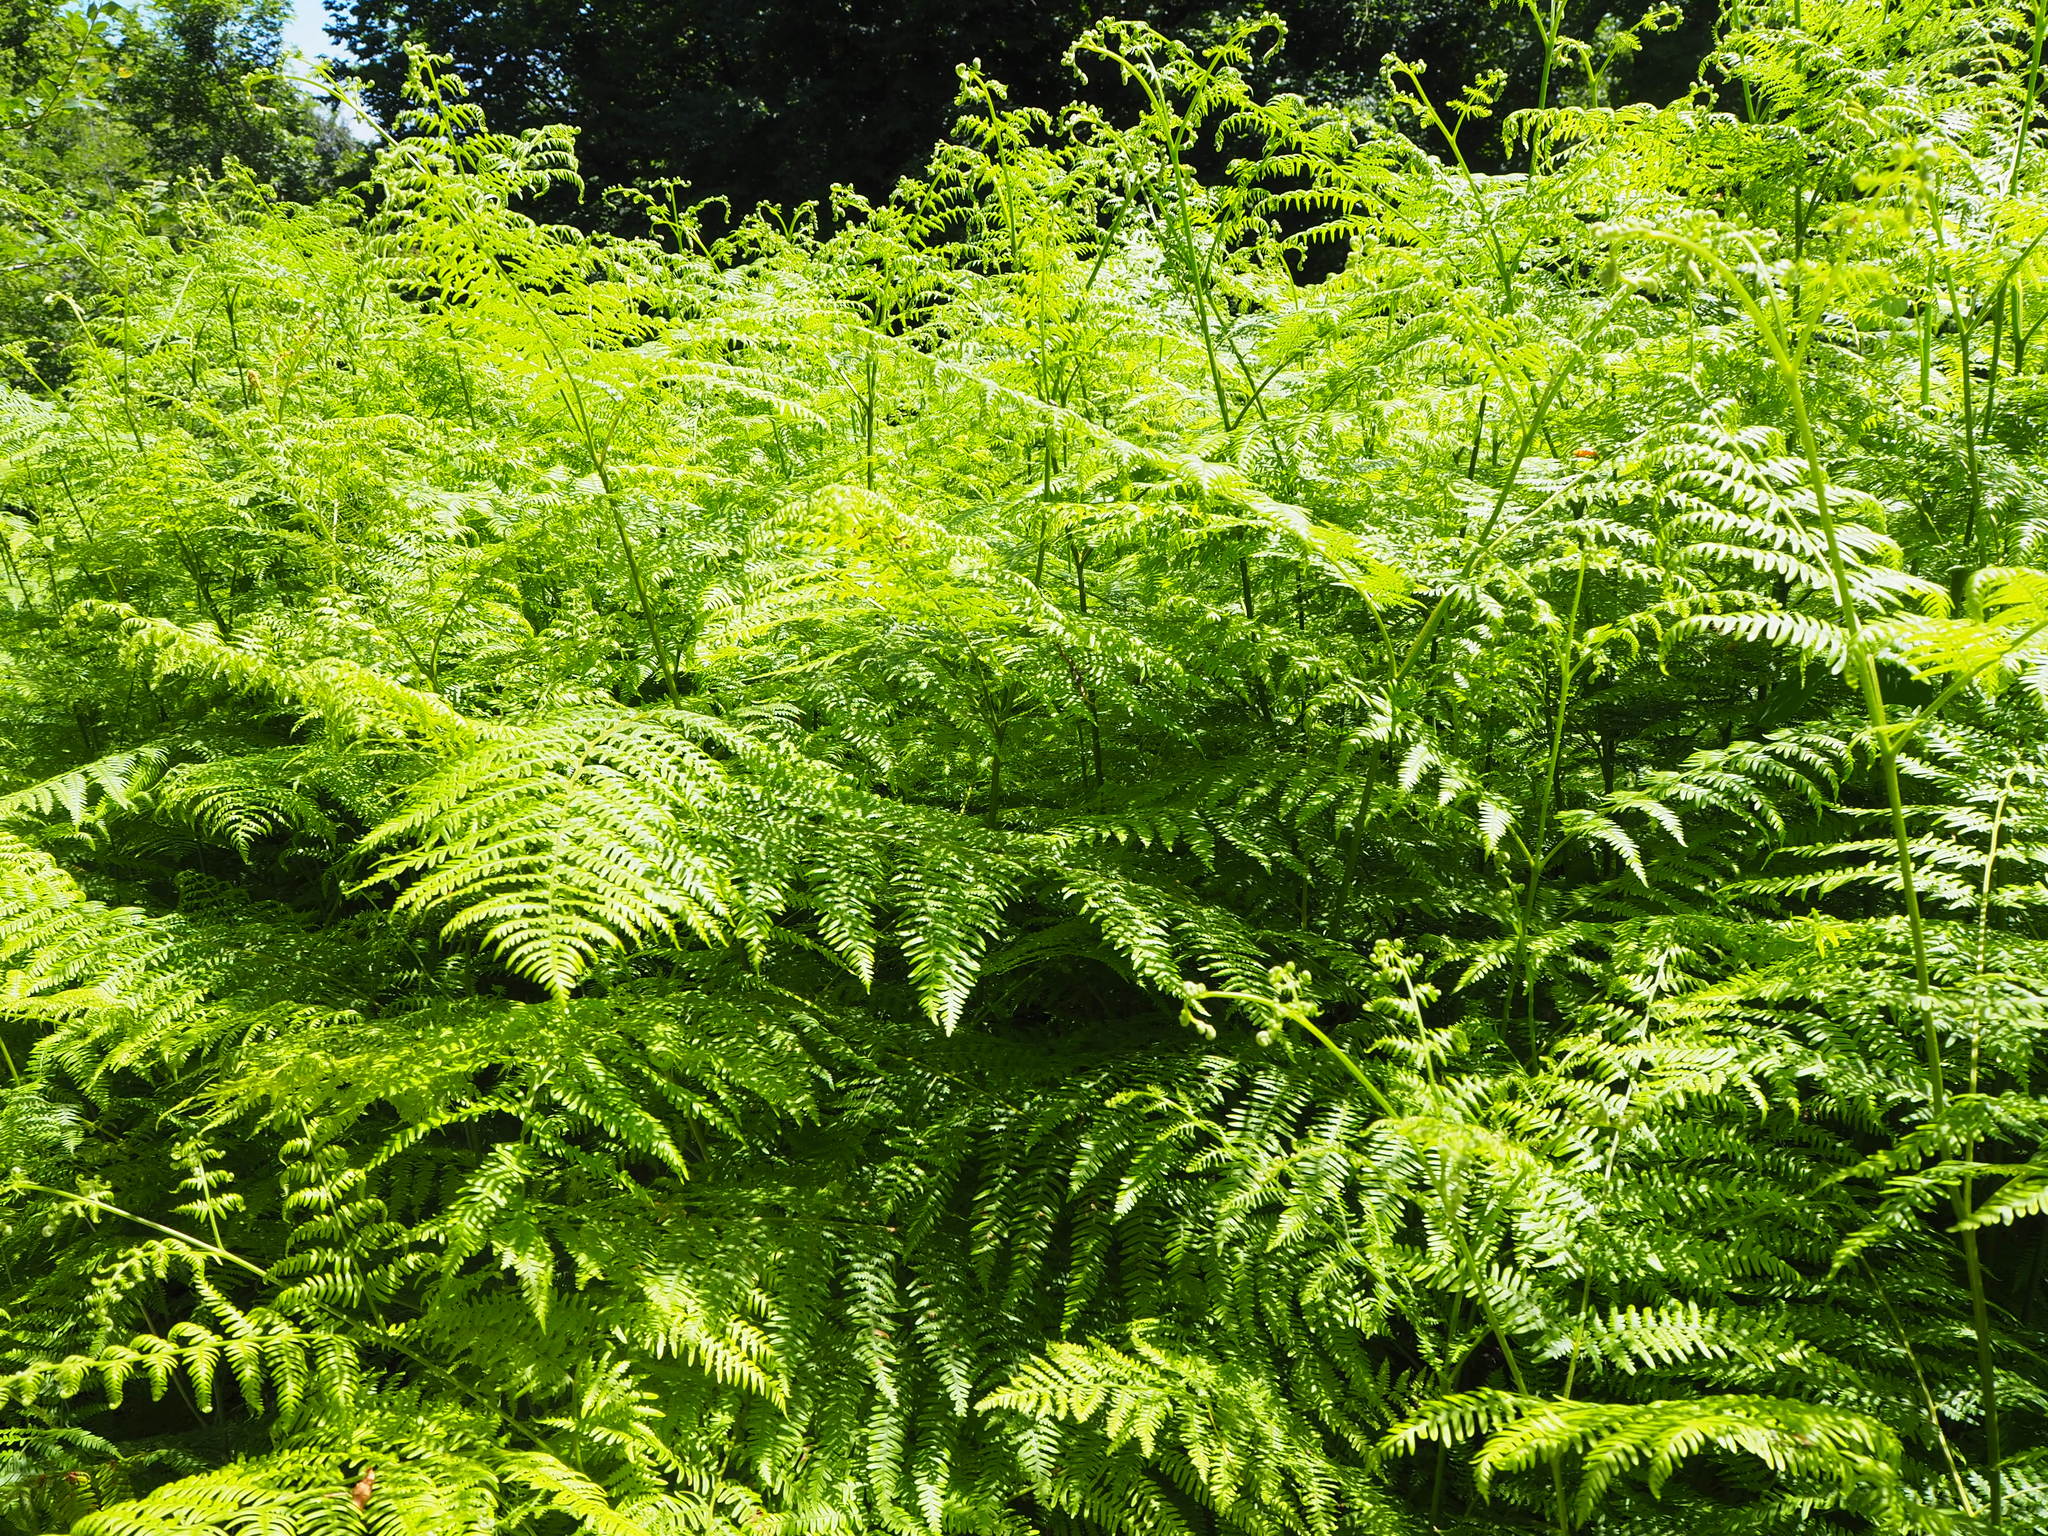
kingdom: Plantae
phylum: Tracheophyta
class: Polypodiopsida
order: Polypodiales
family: Dennstaedtiaceae
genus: Pteridium
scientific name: Pteridium aquilinum
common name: Bracken
